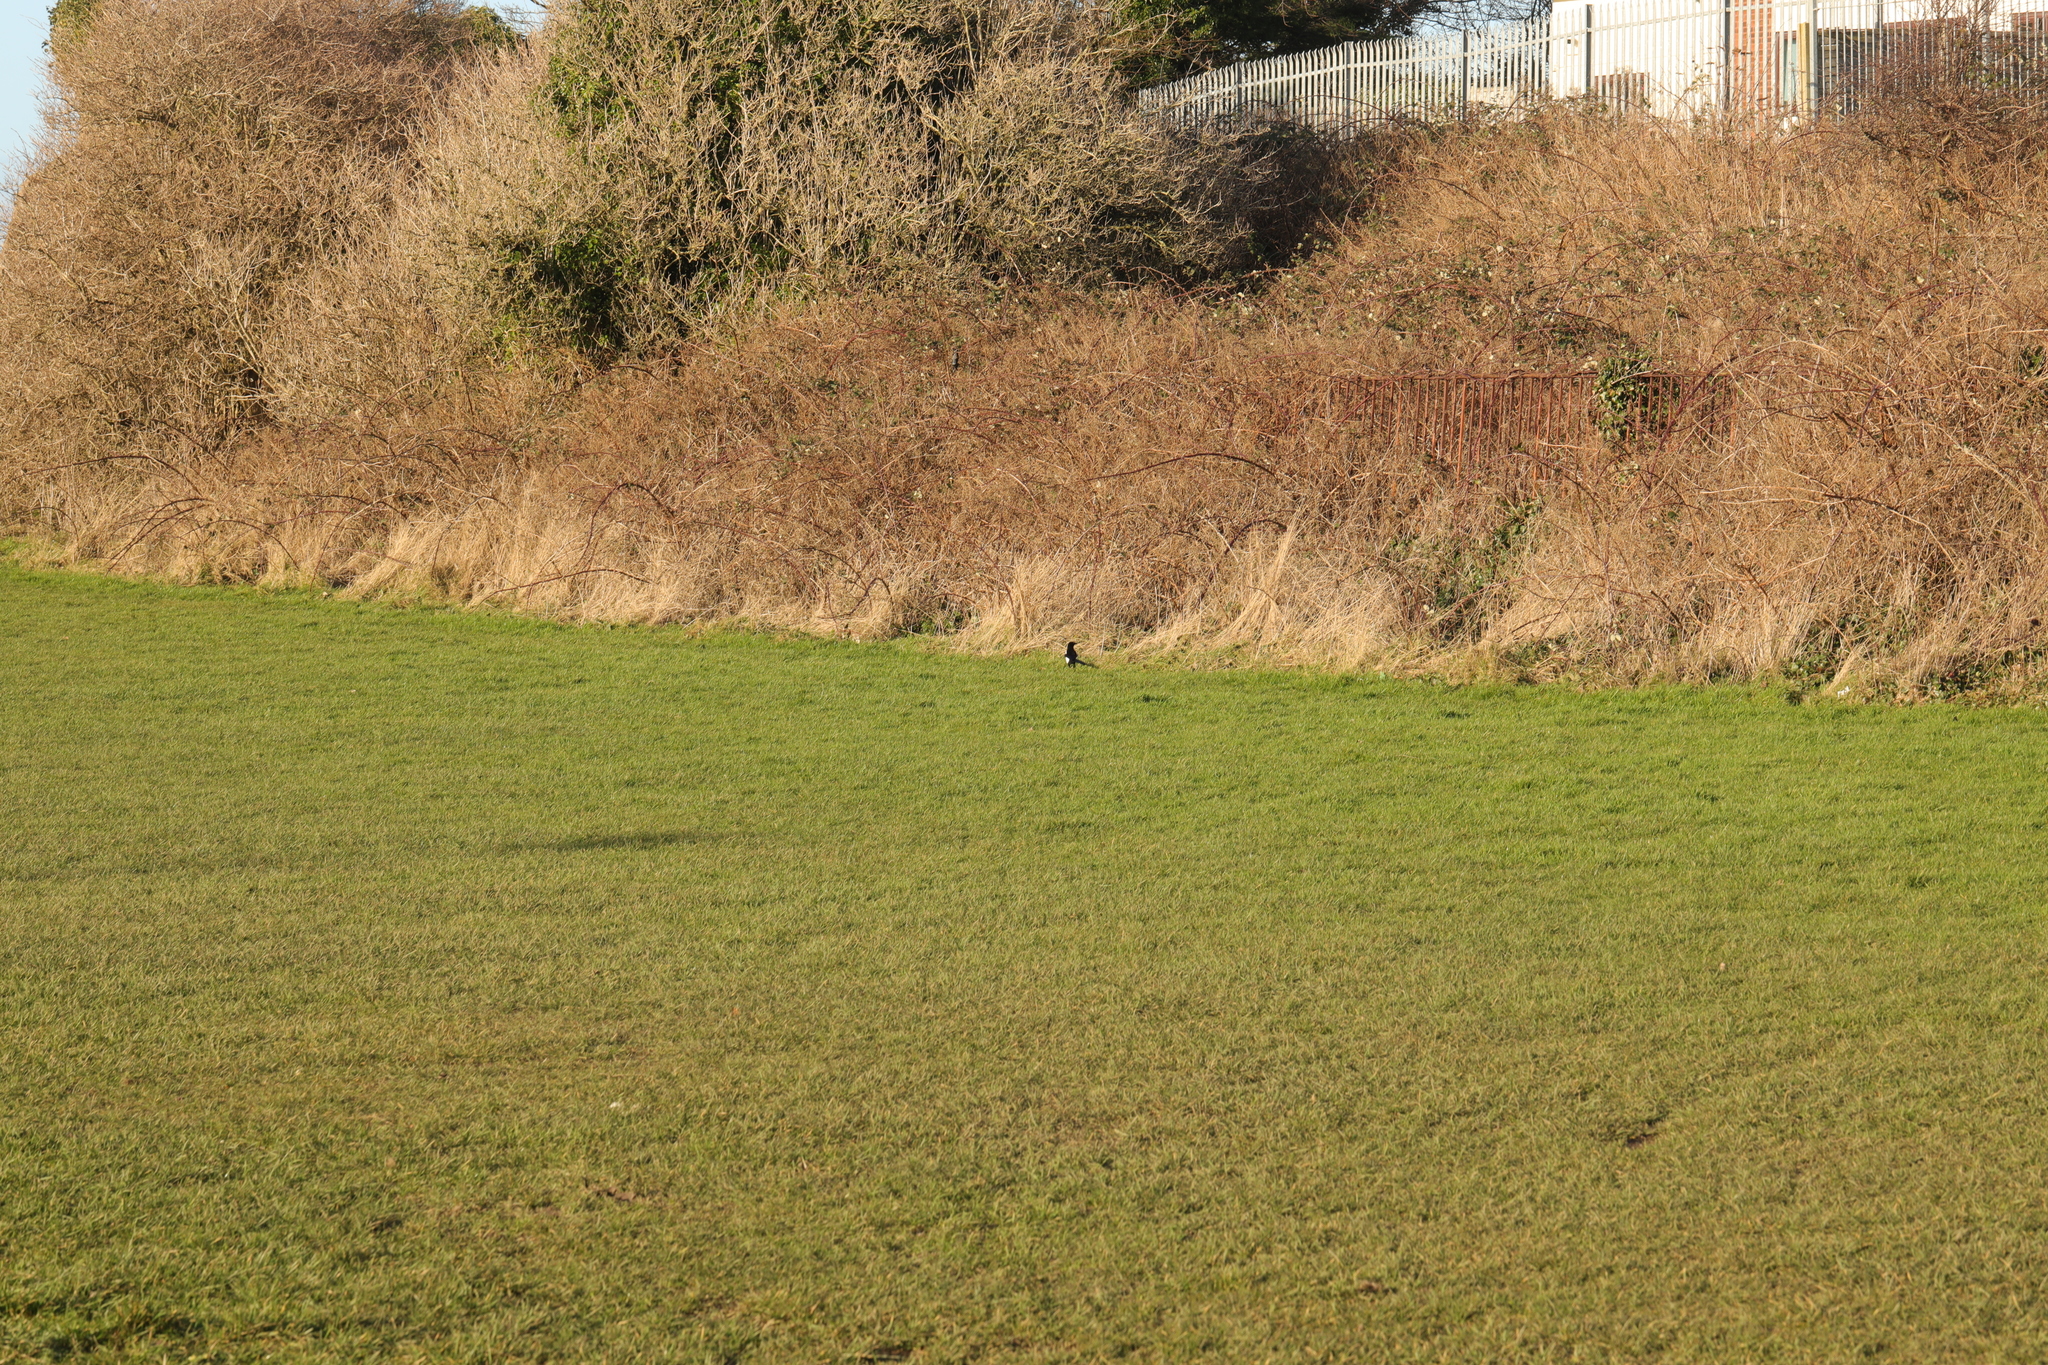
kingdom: Animalia
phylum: Chordata
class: Aves
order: Passeriformes
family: Corvidae
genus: Pica
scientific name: Pica pica
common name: Eurasian magpie
